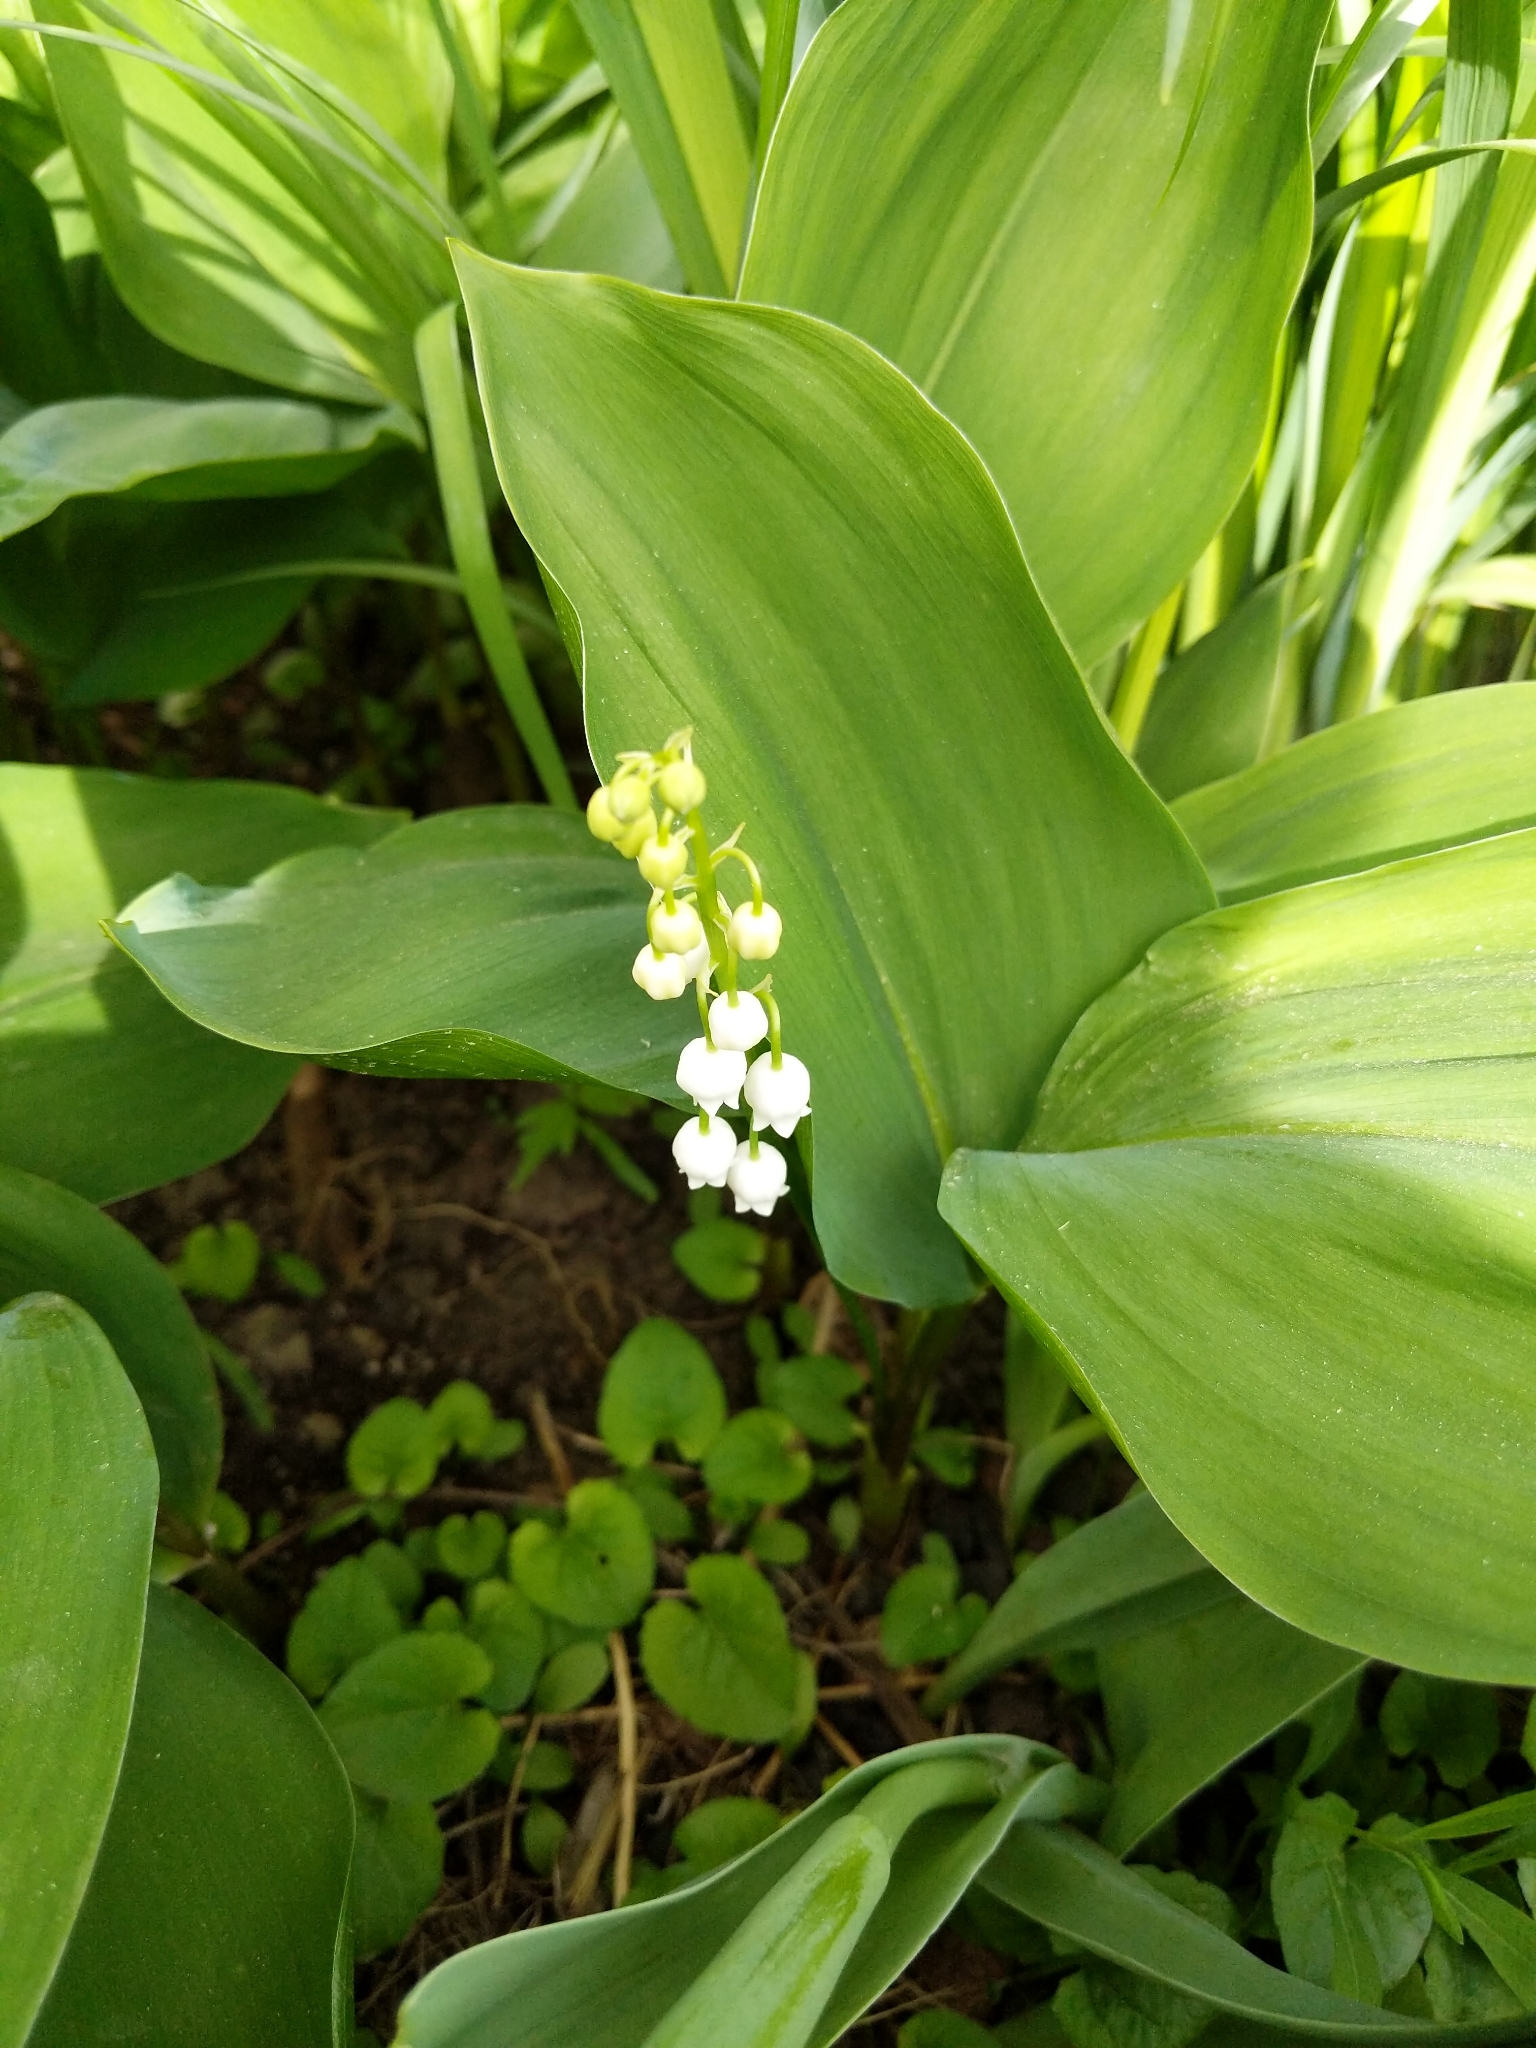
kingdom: Plantae
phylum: Tracheophyta
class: Liliopsida
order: Asparagales
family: Asparagaceae
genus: Convallaria
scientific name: Convallaria majalis
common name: Lily-of-the-valley
